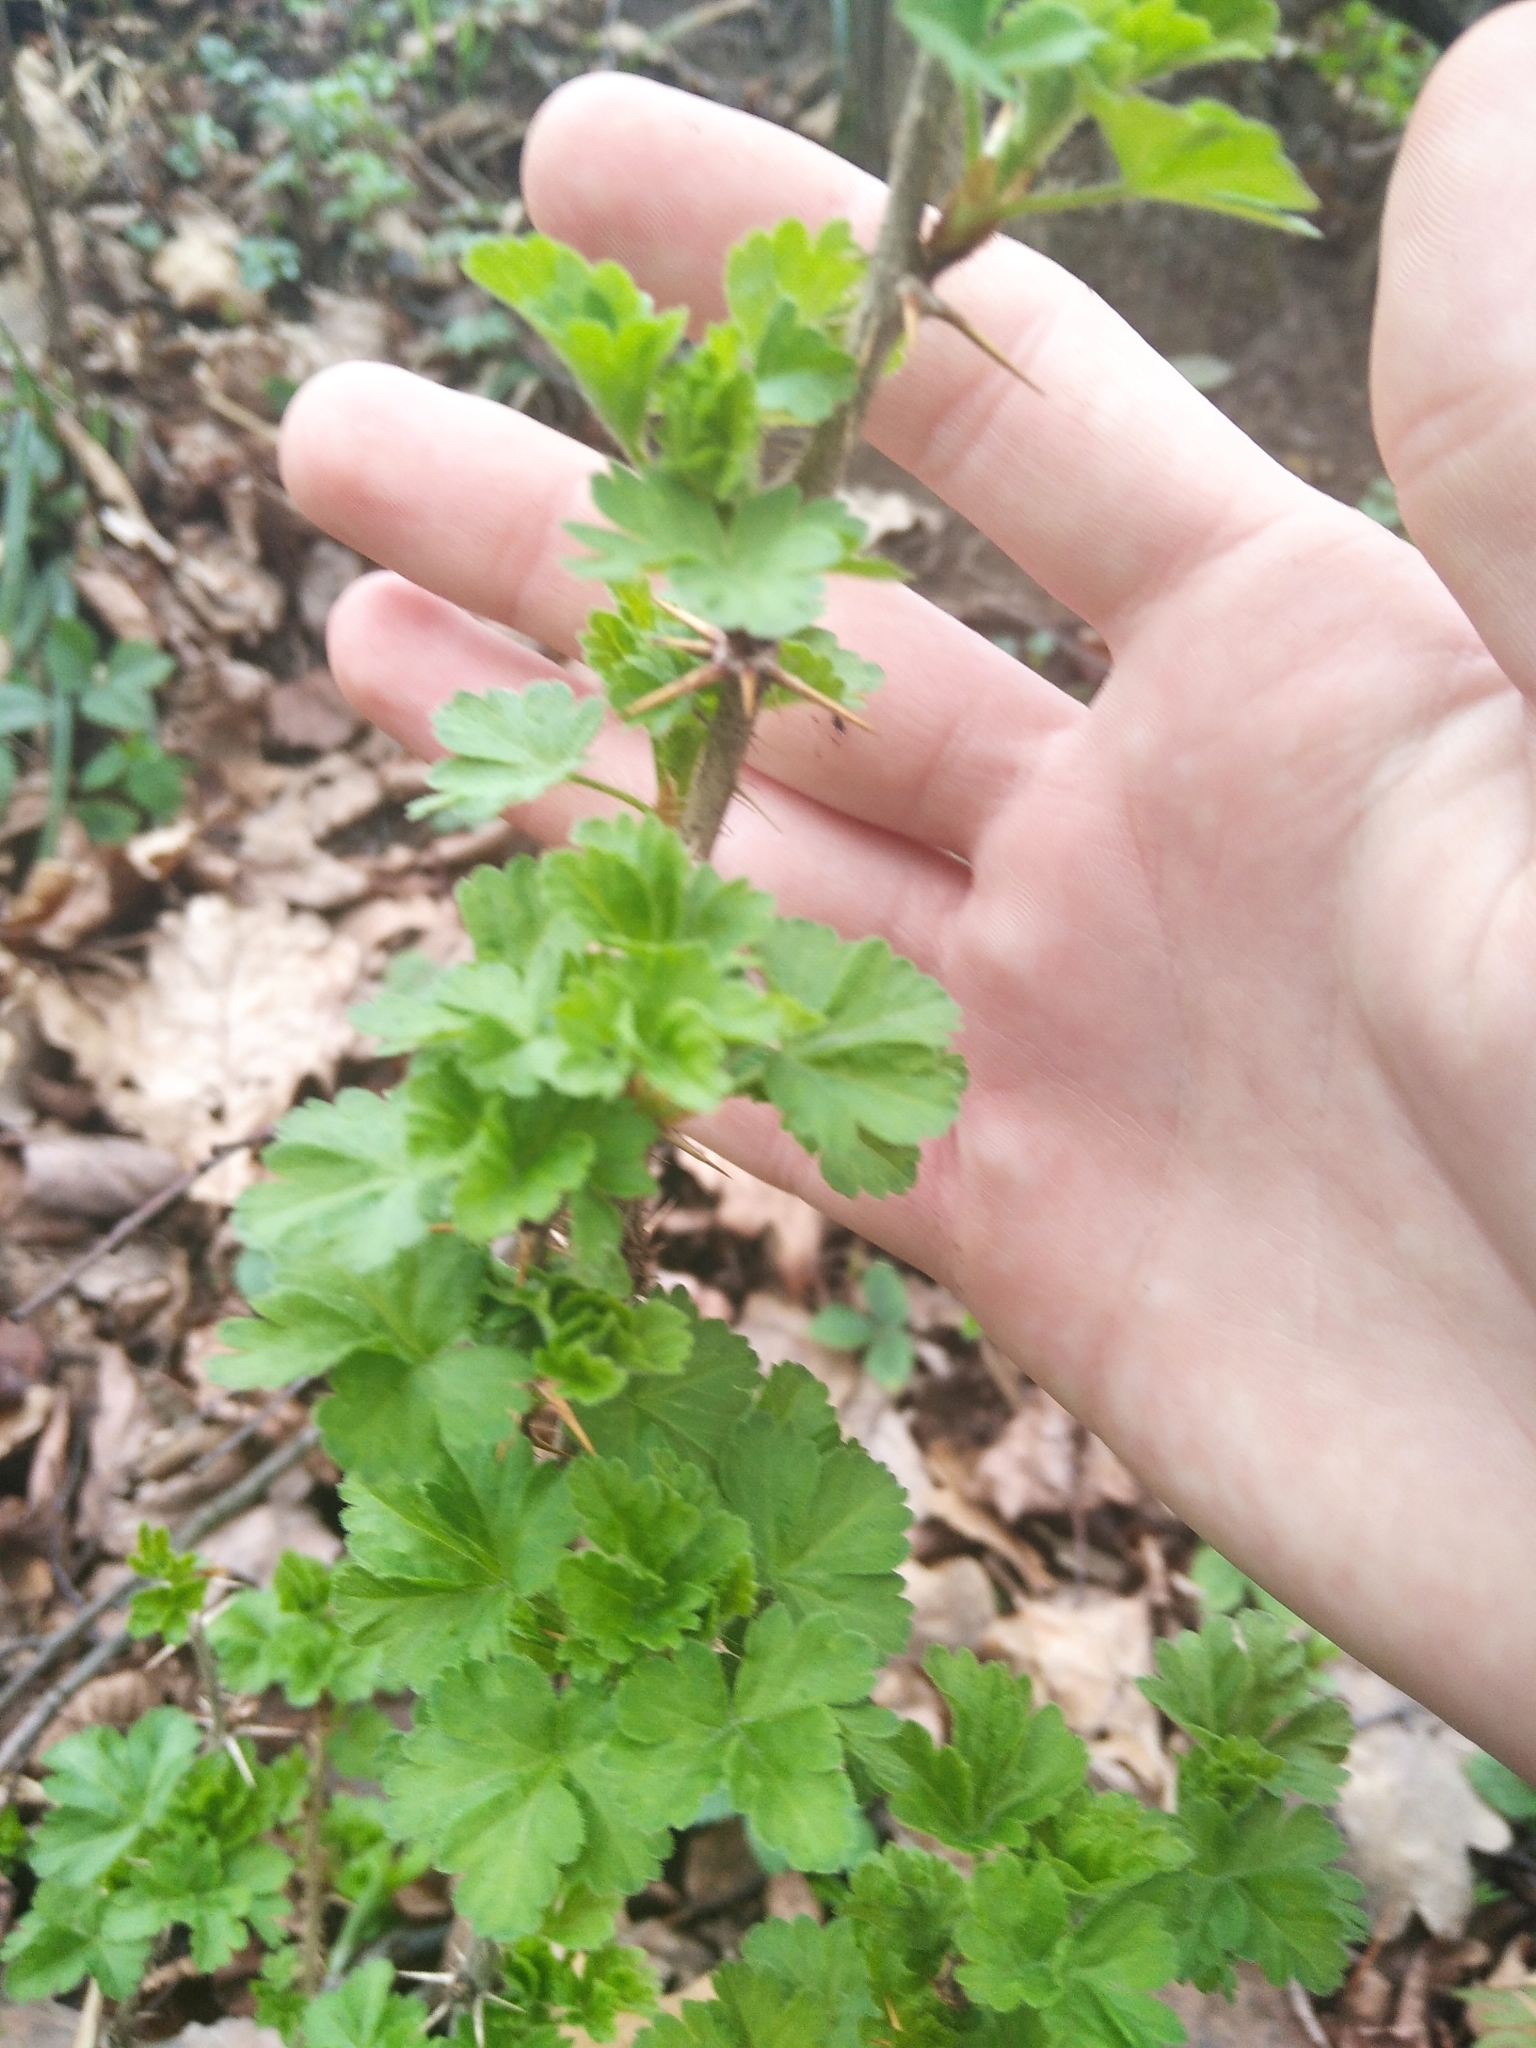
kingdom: Plantae
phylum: Tracheophyta
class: Magnoliopsida
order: Saxifragales
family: Grossulariaceae
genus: Ribes
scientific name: Ribes uva-crispa
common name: Gooseberry
